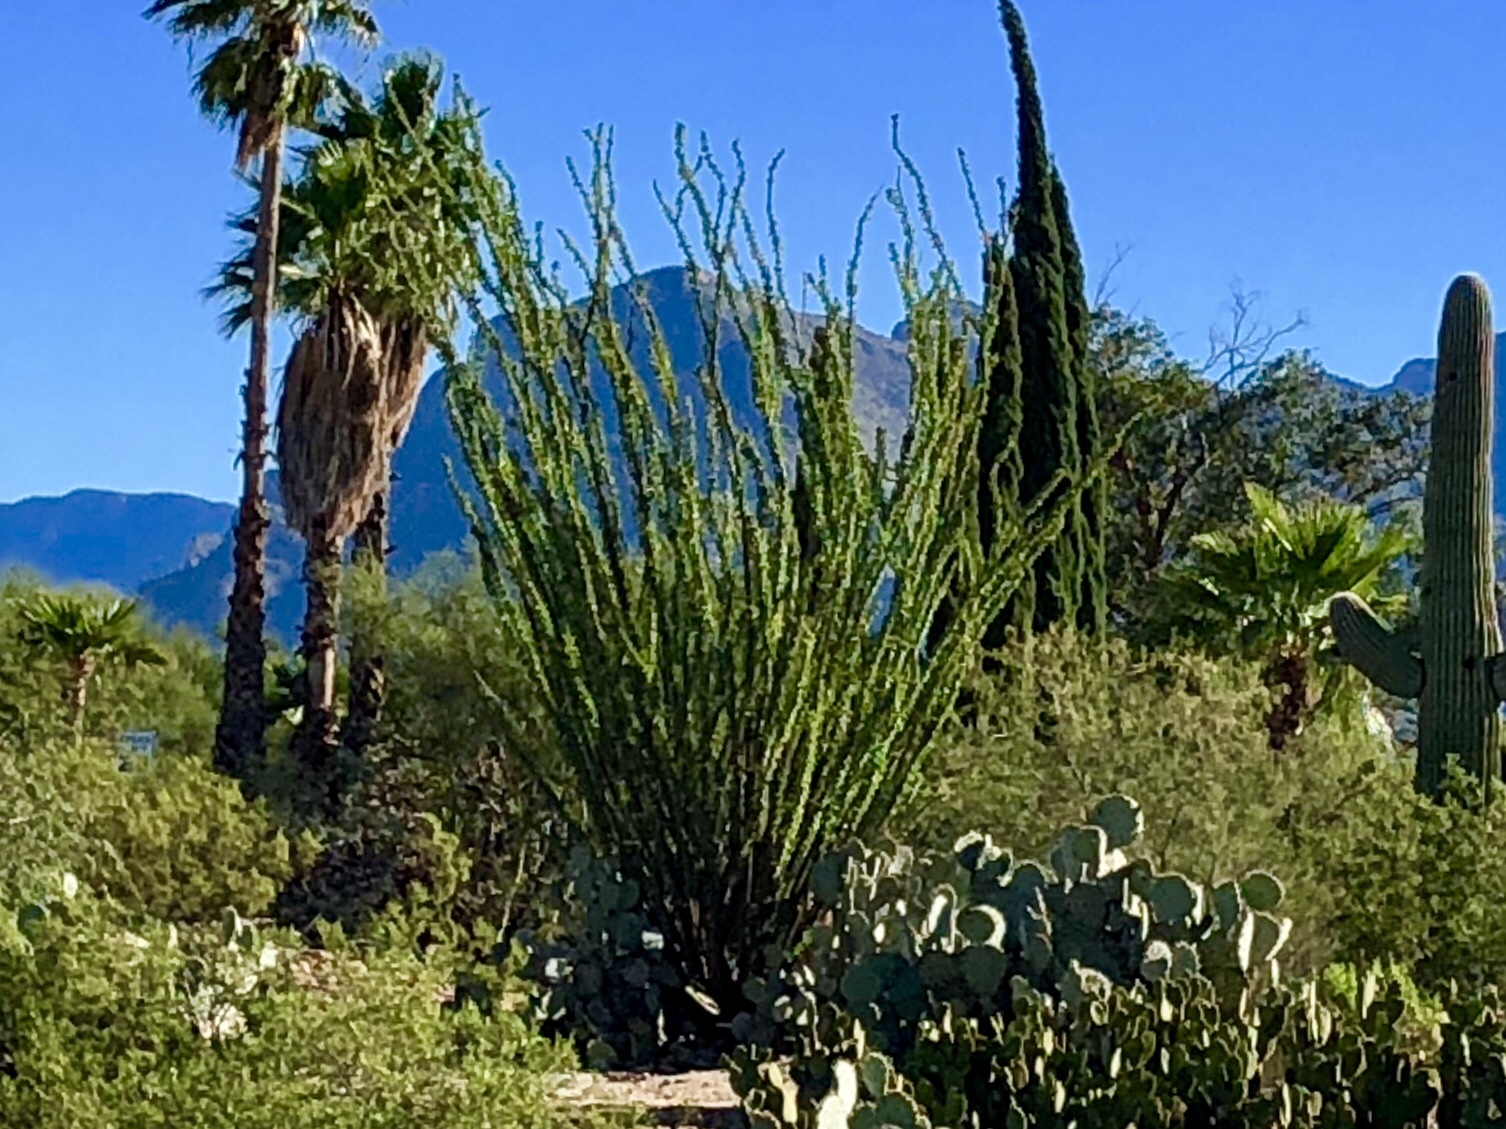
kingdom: Plantae
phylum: Tracheophyta
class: Magnoliopsida
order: Ericales
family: Fouquieriaceae
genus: Fouquieria
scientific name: Fouquieria splendens
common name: Vine-cactus
